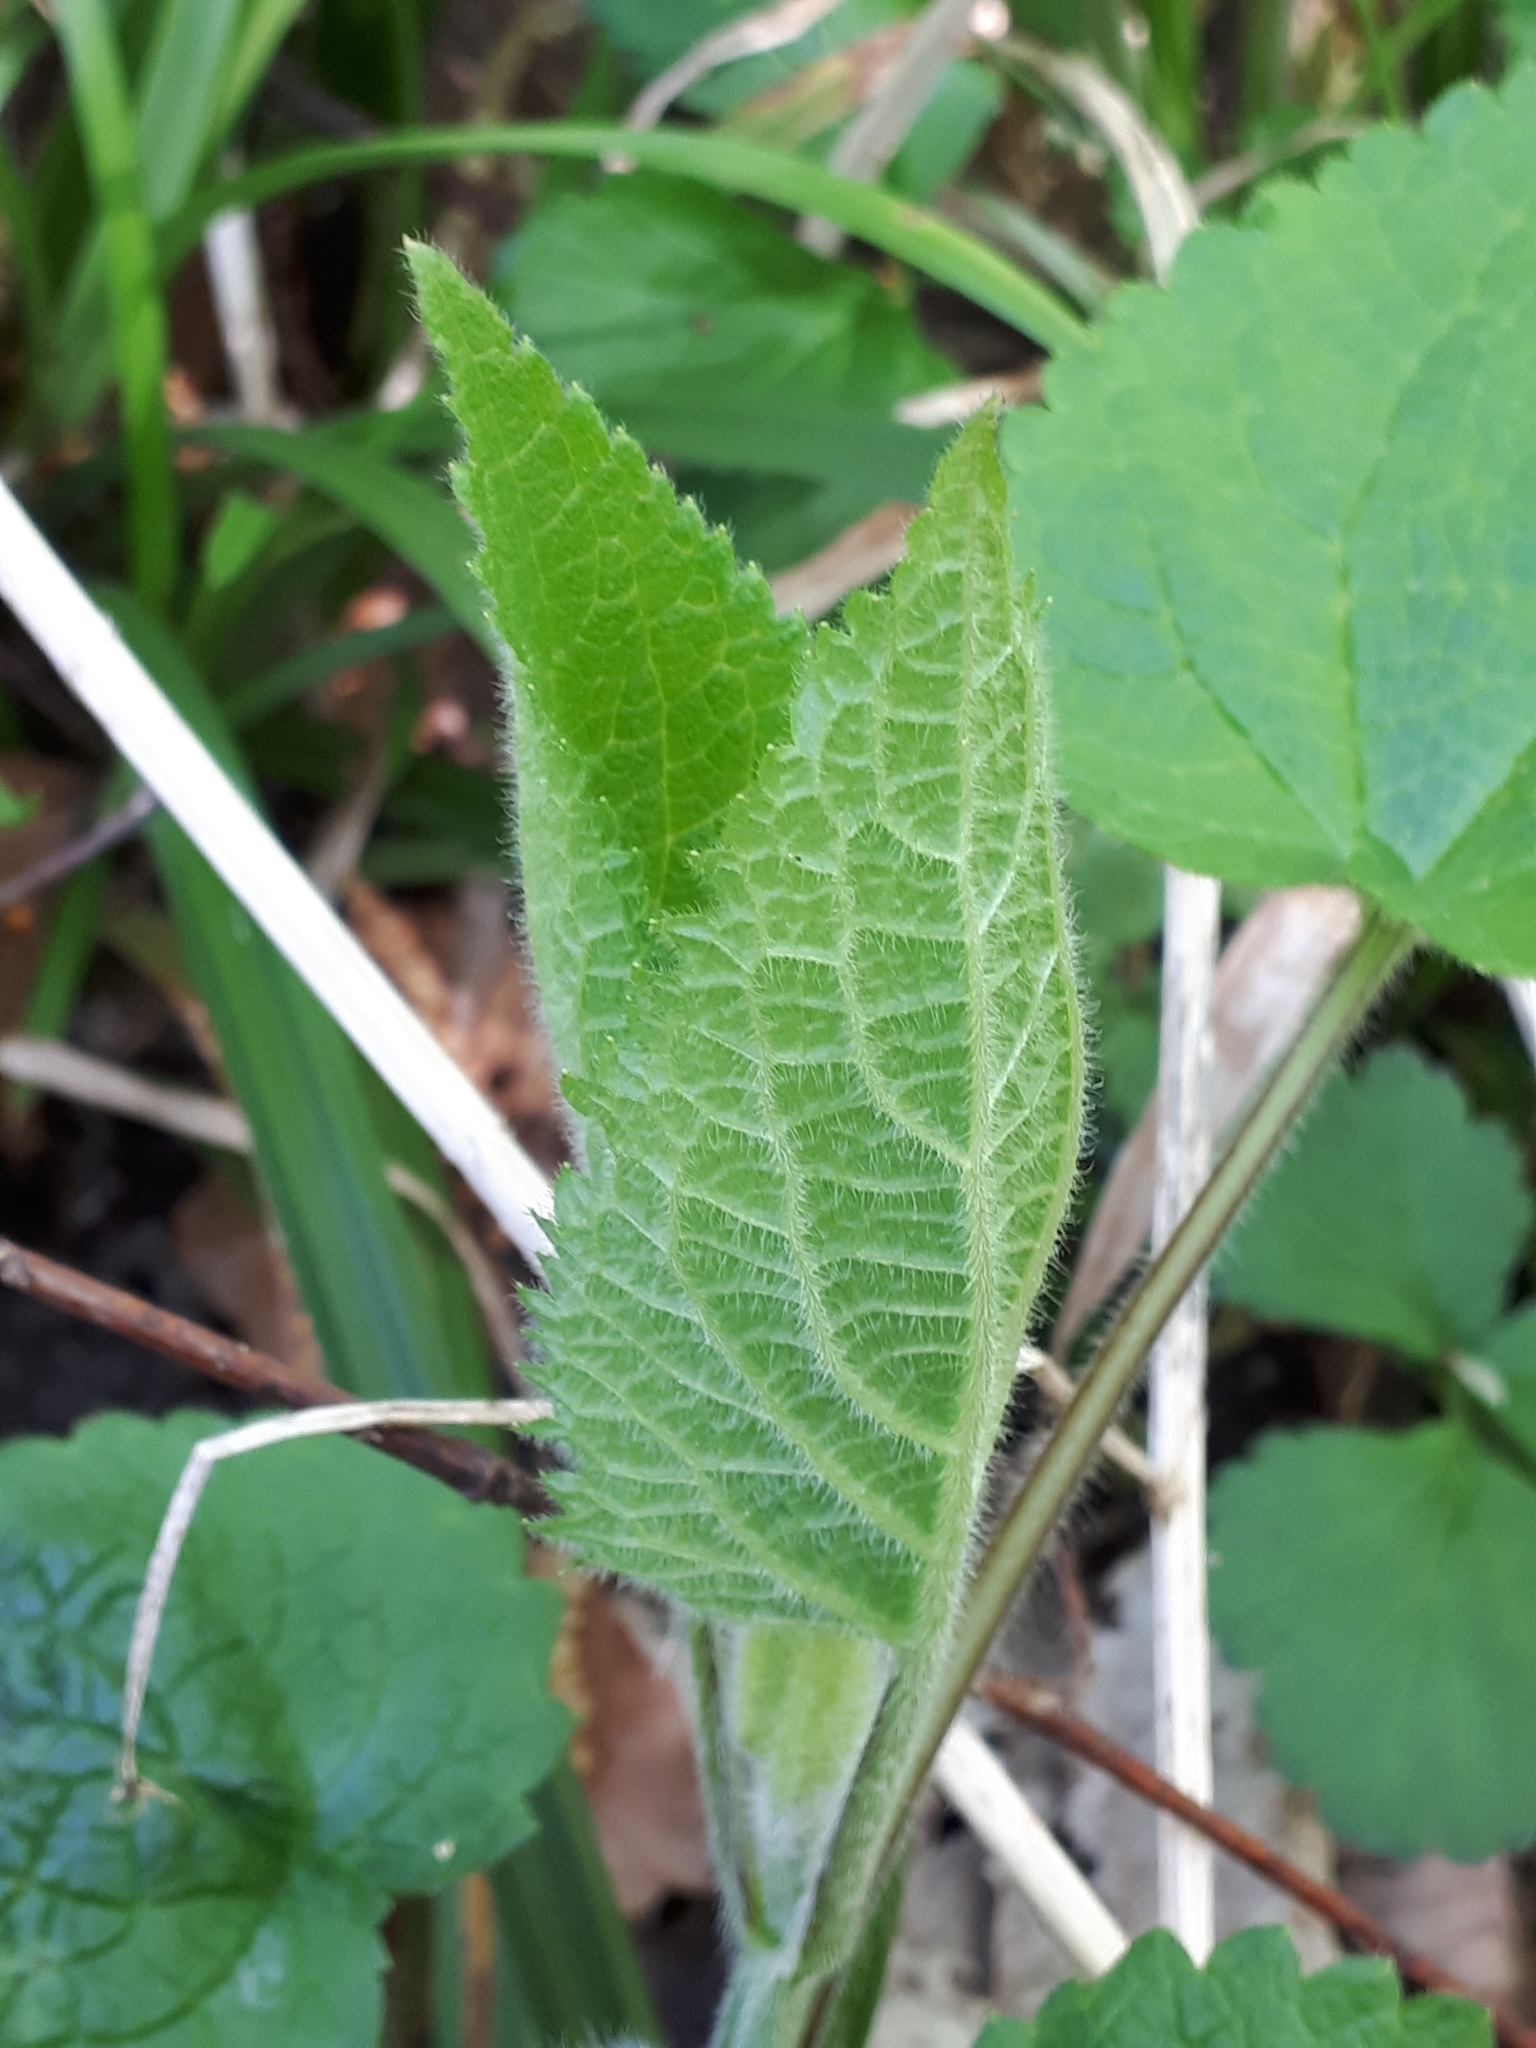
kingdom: Plantae
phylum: Tracheophyta
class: Magnoliopsida
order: Lamiales
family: Lamiaceae
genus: Stachys
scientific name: Stachys sylvatica
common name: Hedge woundwort
